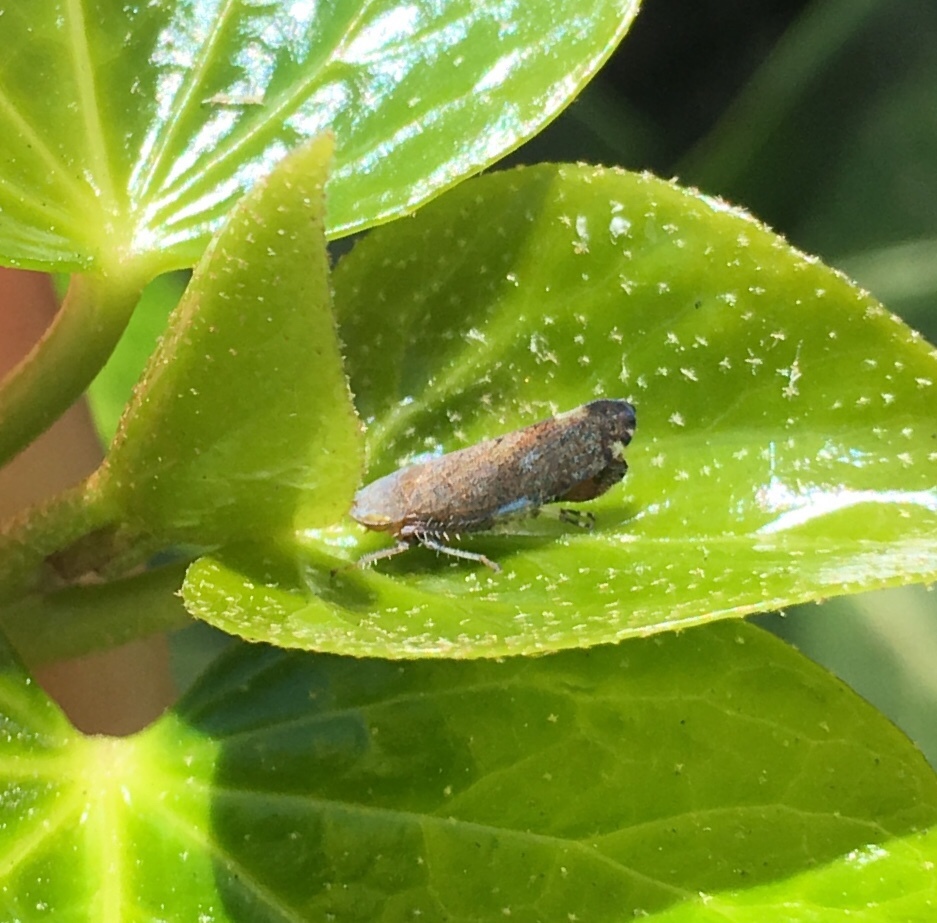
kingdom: Animalia
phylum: Arthropoda
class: Insecta
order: Hemiptera
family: Cicadellidae
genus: Fieberiella
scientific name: Fieberiella florii
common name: Flor’s leafhopper
